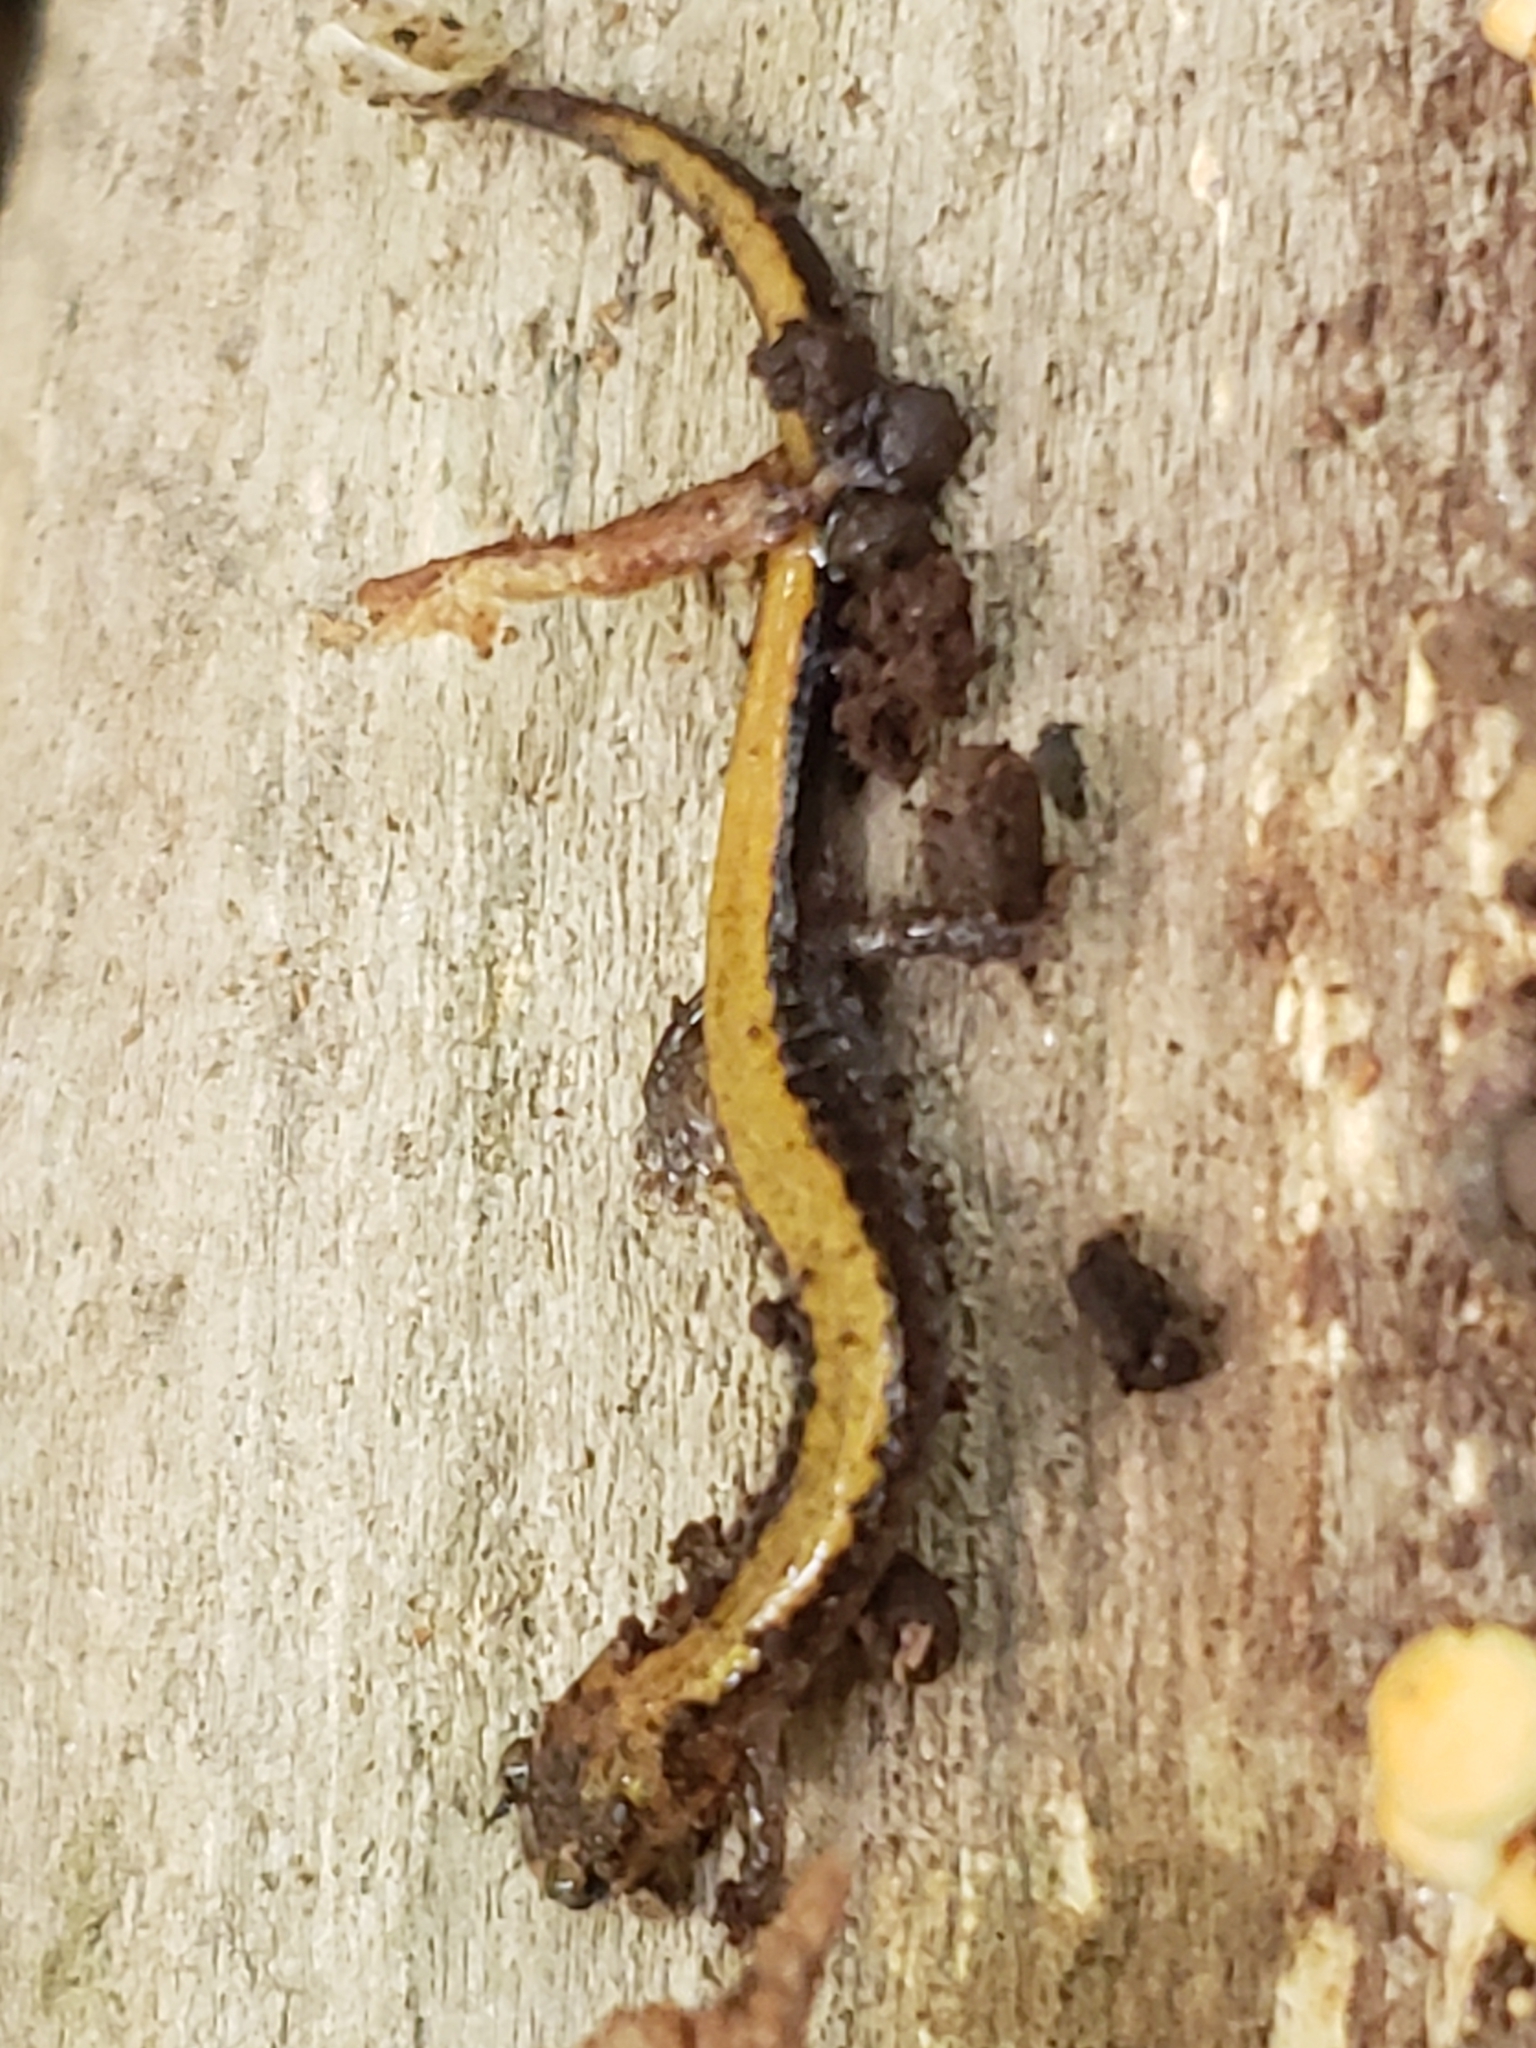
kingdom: Animalia
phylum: Chordata
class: Amphibia
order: Caudata
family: Plethodontidae
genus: Plethodon
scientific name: Plethodon cinereus
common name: Redback salamander
